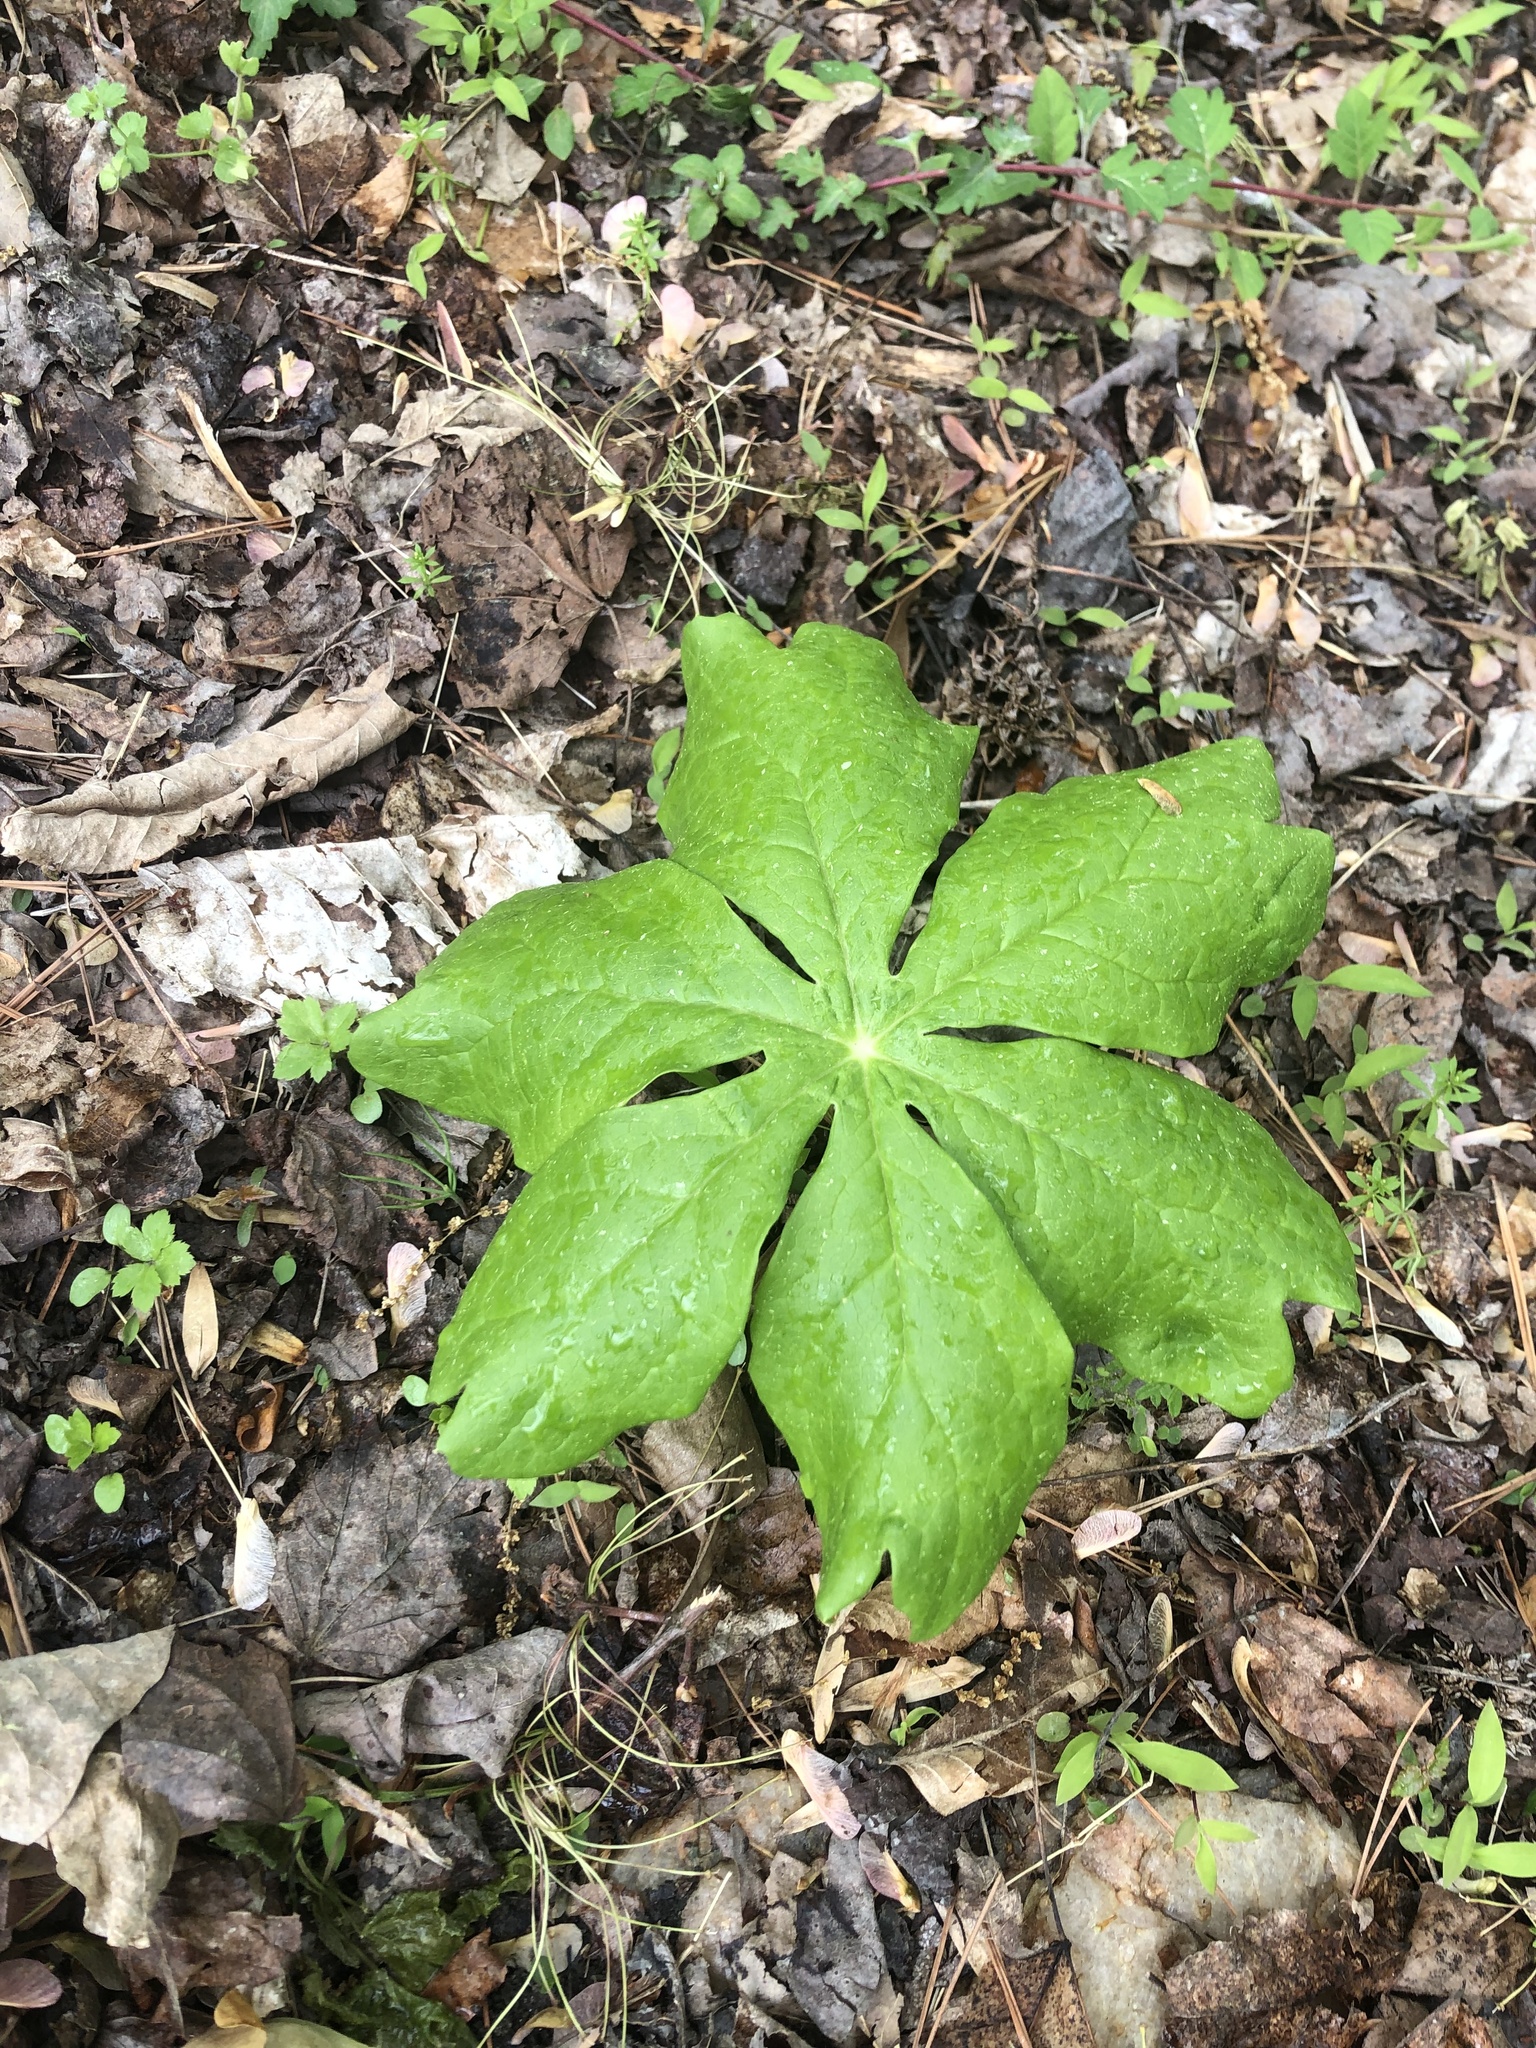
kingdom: Plantae
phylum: Tracheophyta
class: Magnoliopsida
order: Ranunculales
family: Berberidaceae
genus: Podophyllum
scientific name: Podophyllum peltatum
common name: Wild mandrake
